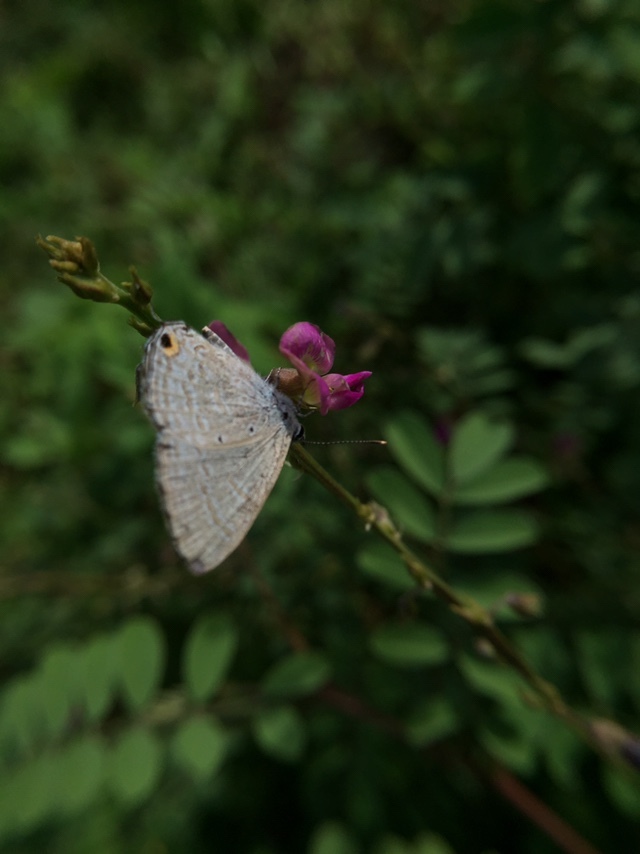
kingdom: Animalia
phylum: Arthropoda
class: Insecta
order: Lepidoptera
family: Lycaenidae
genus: Catochrysops
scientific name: Catochrysops strabo
